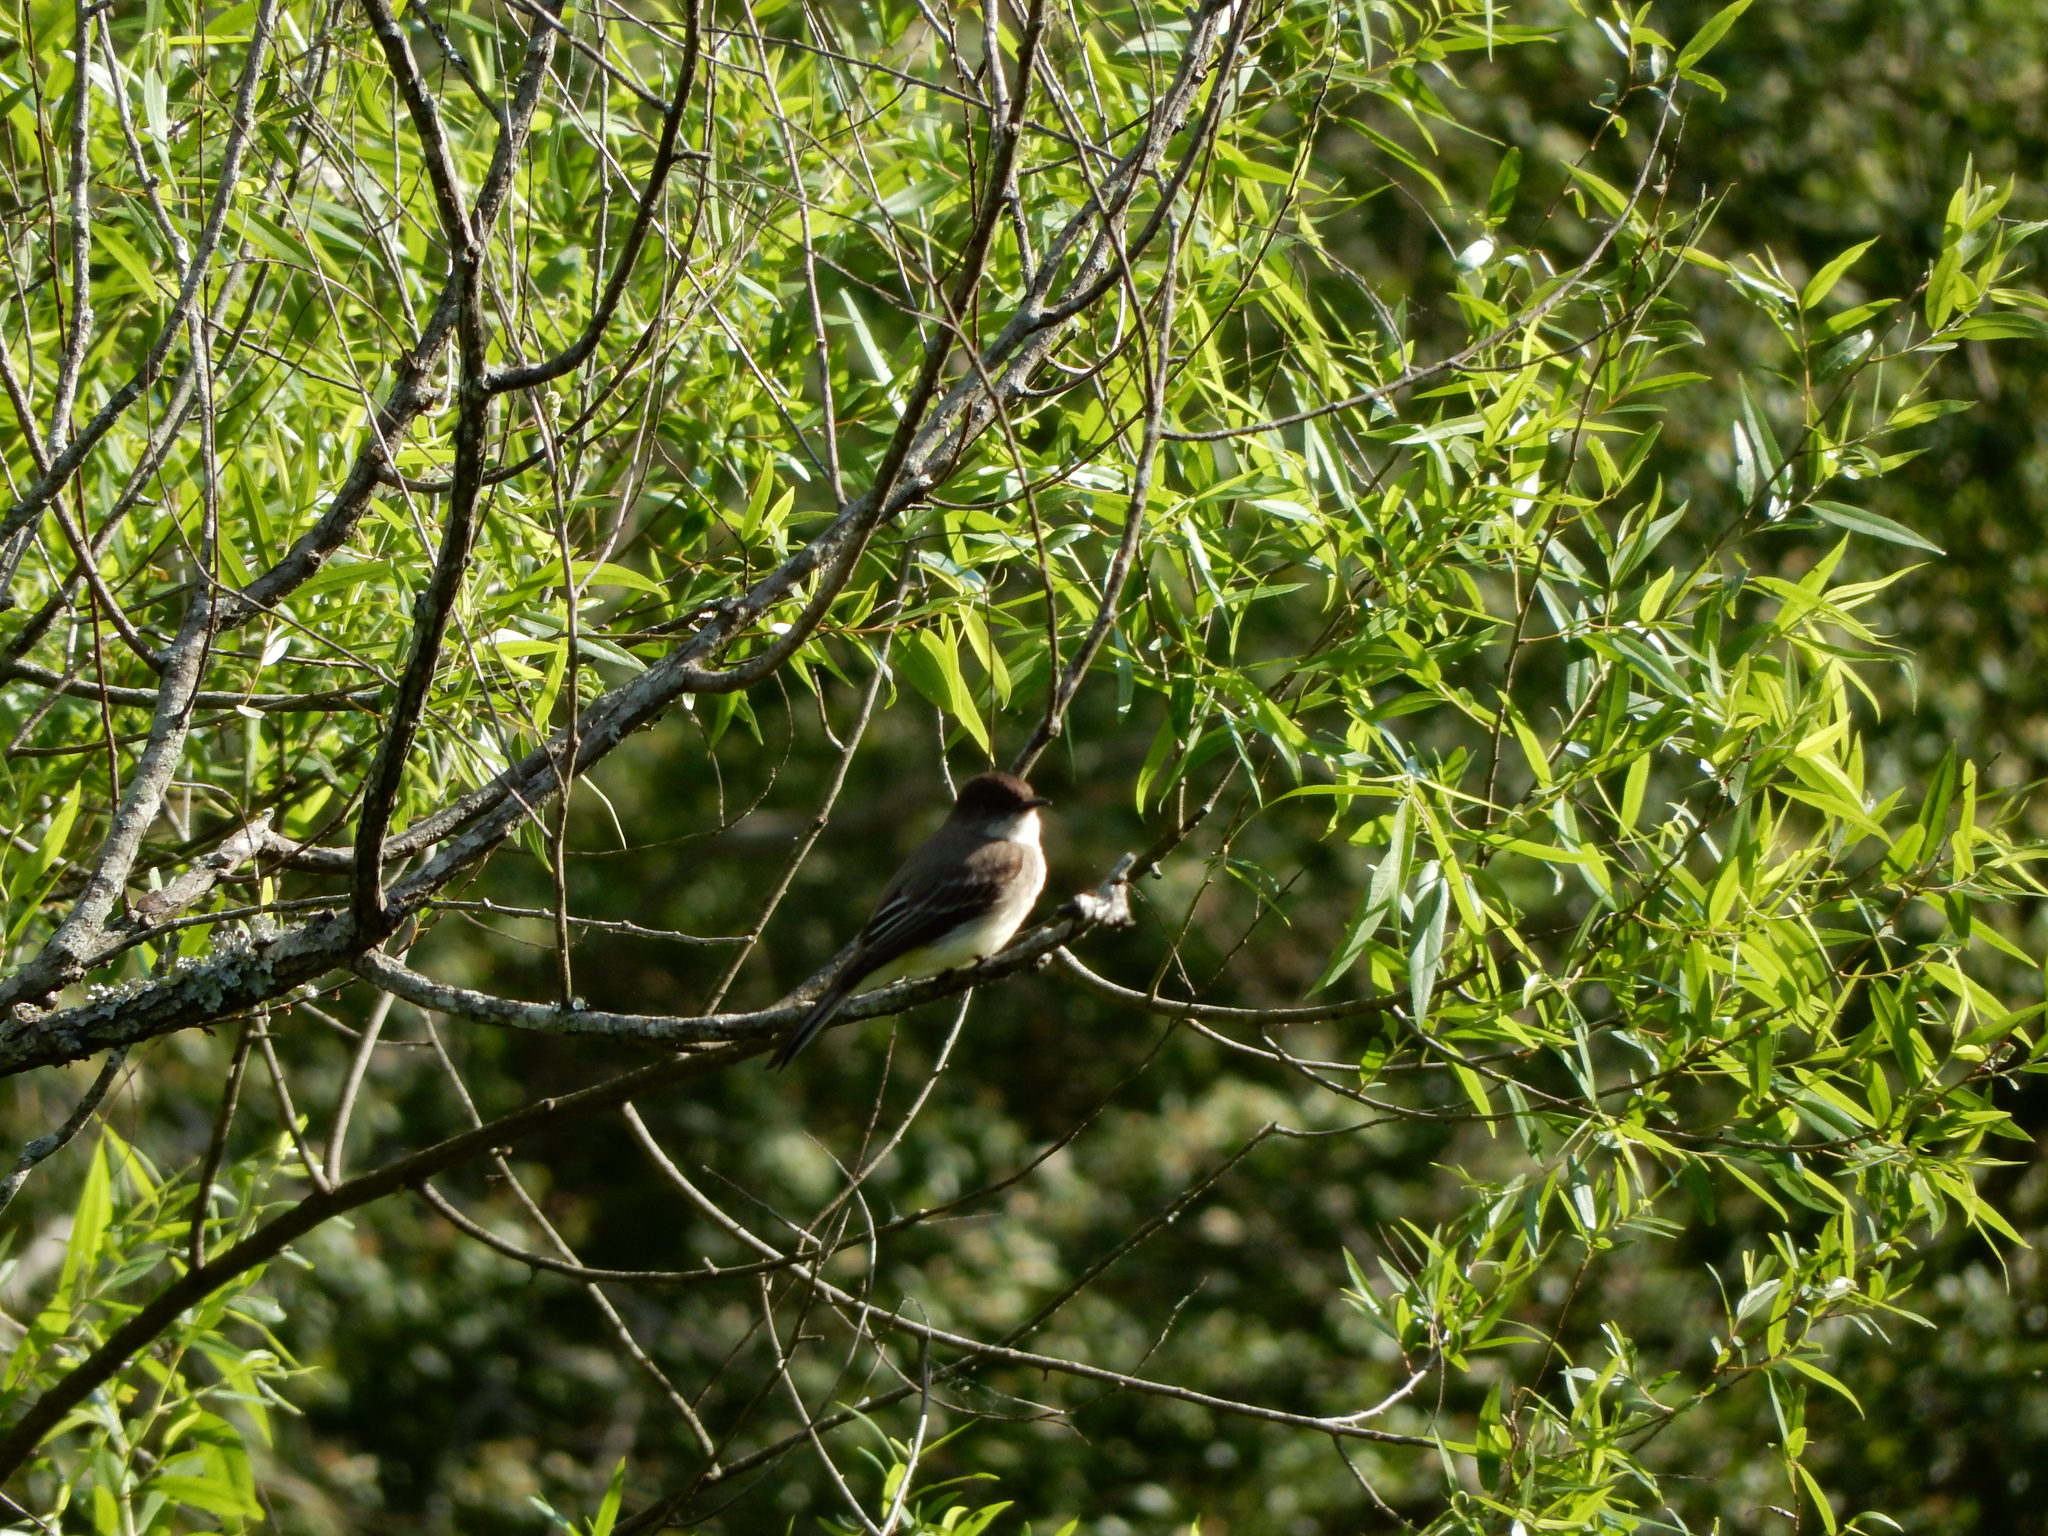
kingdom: Animalia
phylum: Chordata
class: Aves
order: Passeriformes
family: Tyrannidae
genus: Sayornis
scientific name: Sayornis phoebe
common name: Eastern phoebe
